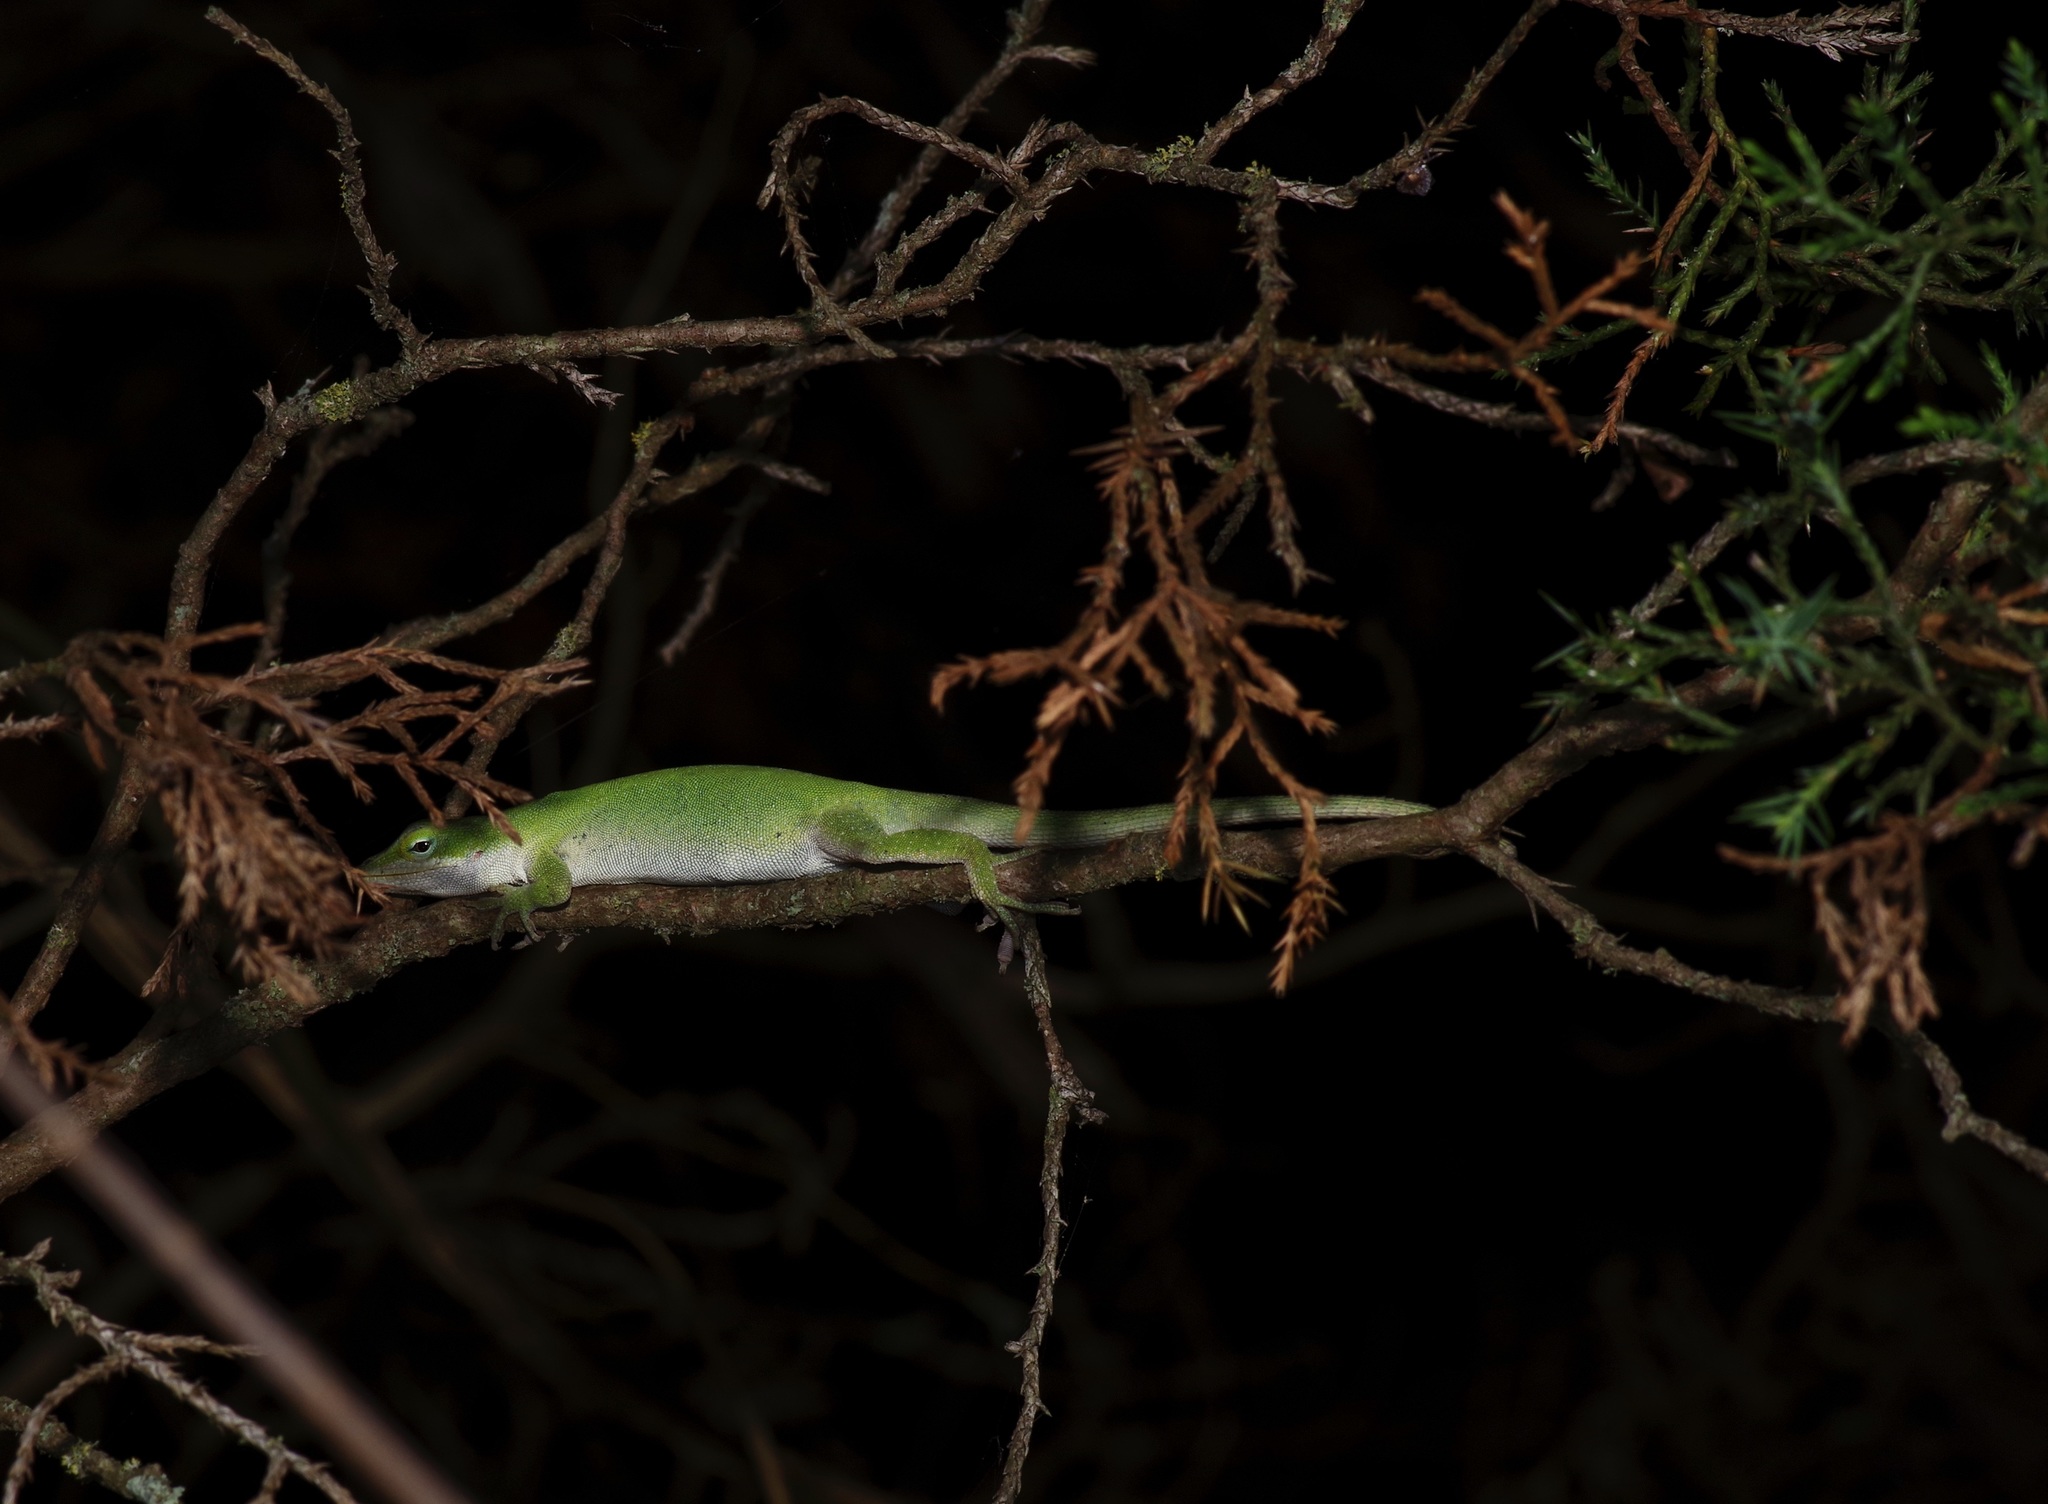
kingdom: Animalia
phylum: Chordata
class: Squamata
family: Dactyloidae
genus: Anolis
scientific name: Anolis carolinensis
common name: Green anole
